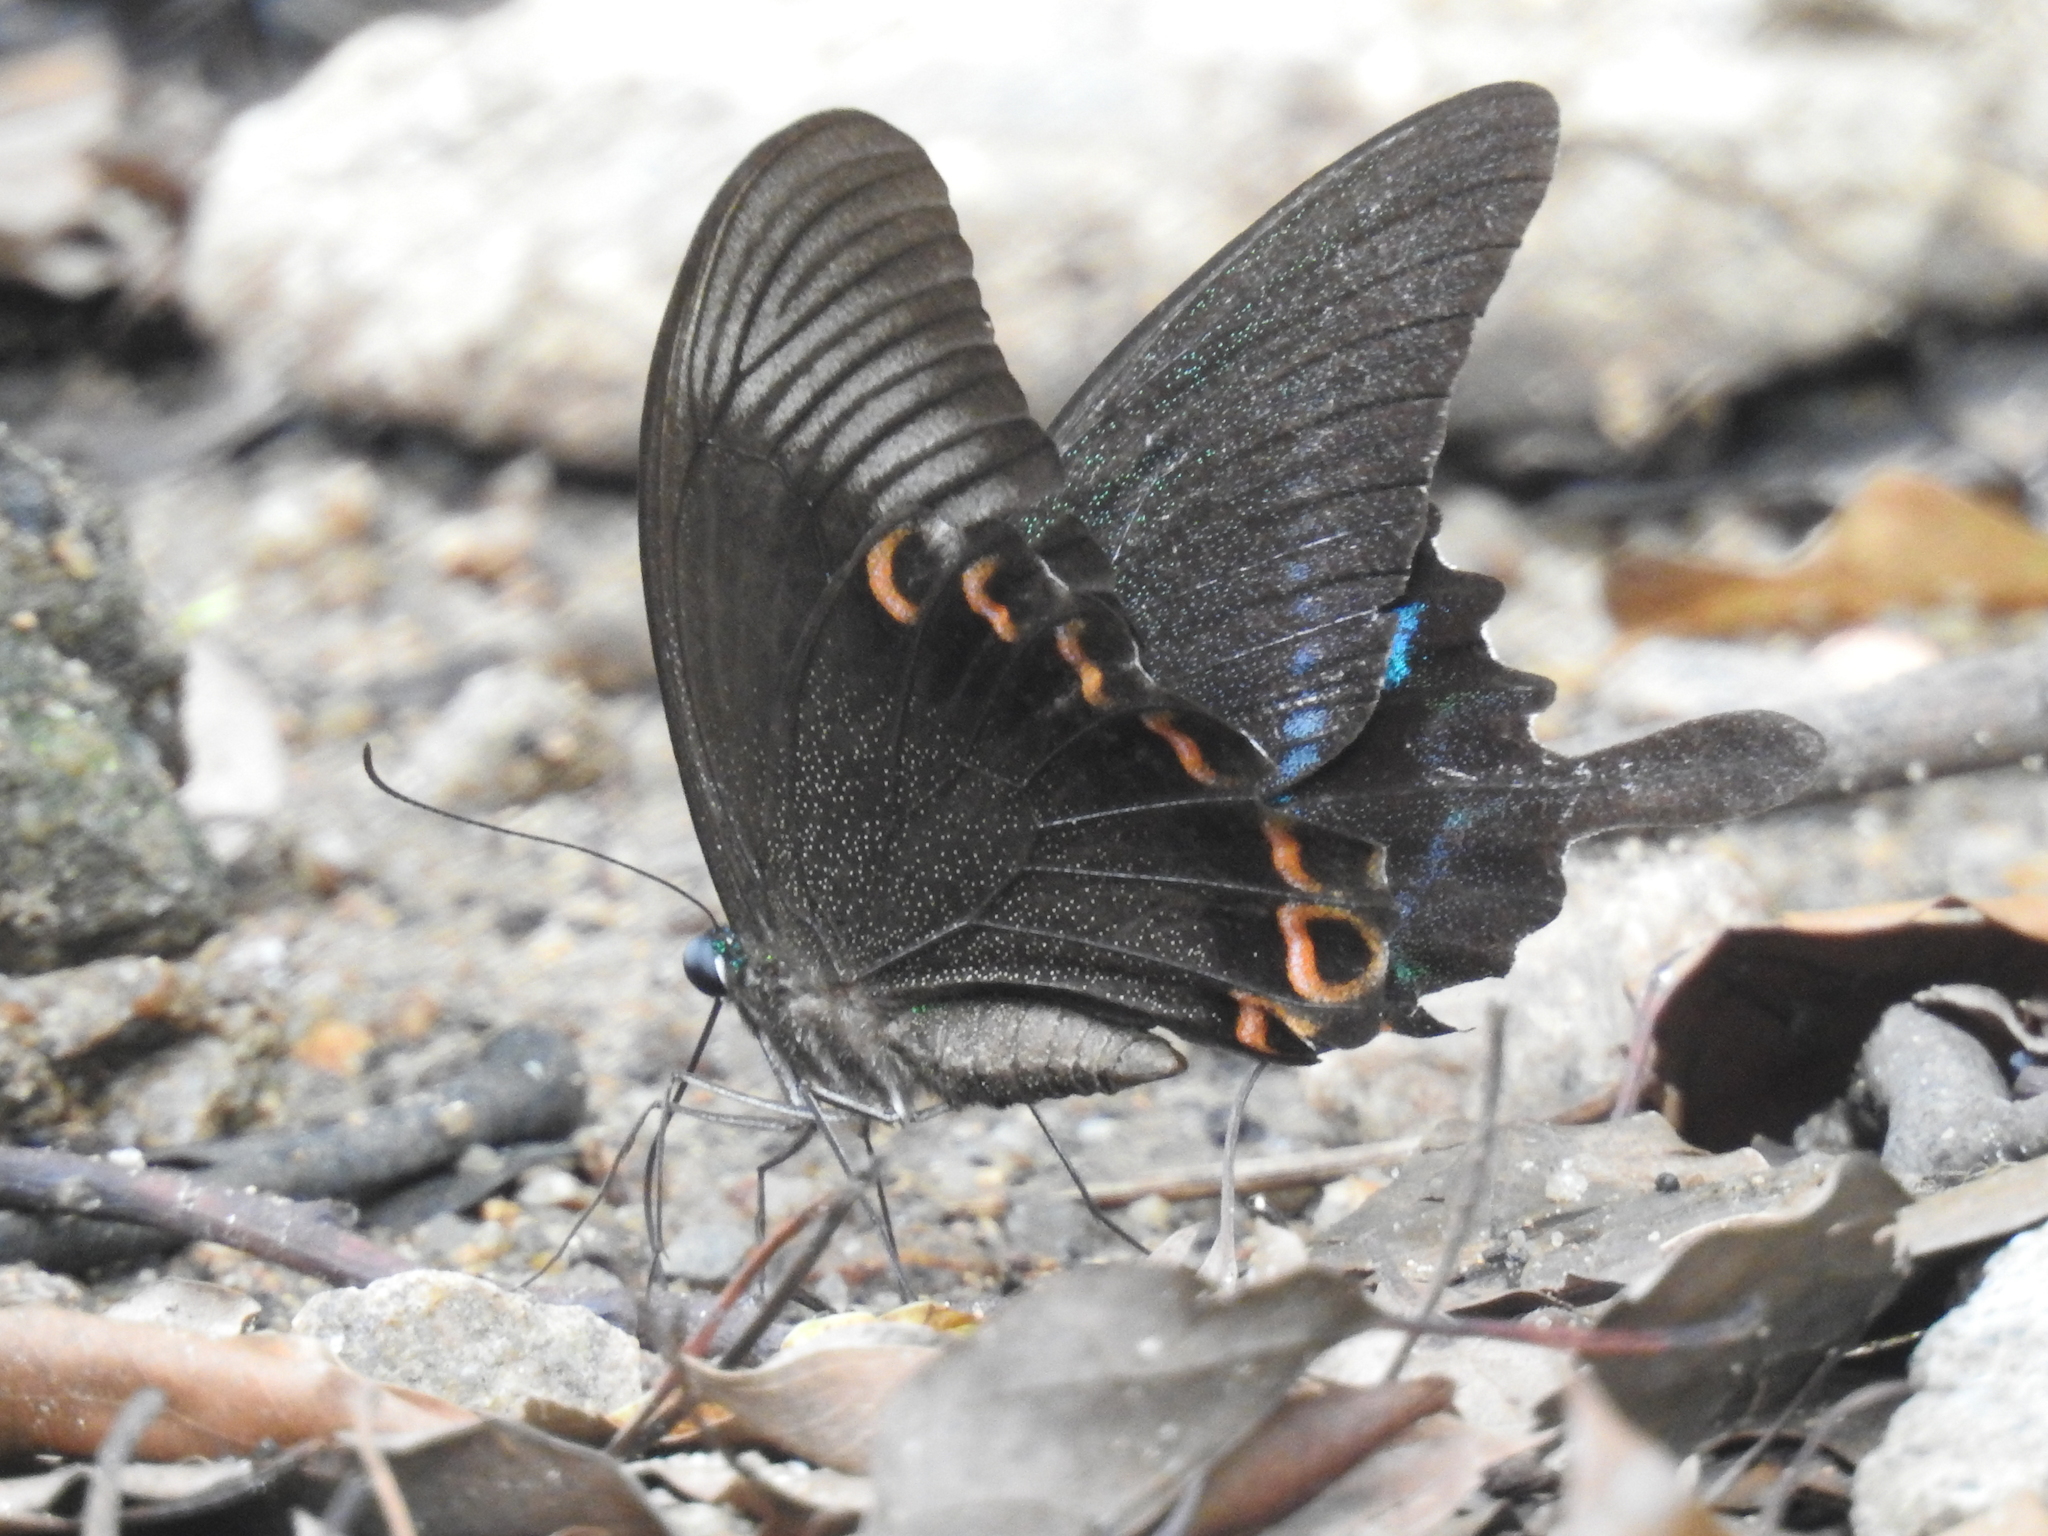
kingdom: Animalia
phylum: Arthropoda
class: Insecta
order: Lepidoptera
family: Papilionidae
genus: Papilio
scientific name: Papilio paris
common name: Paris peacock
